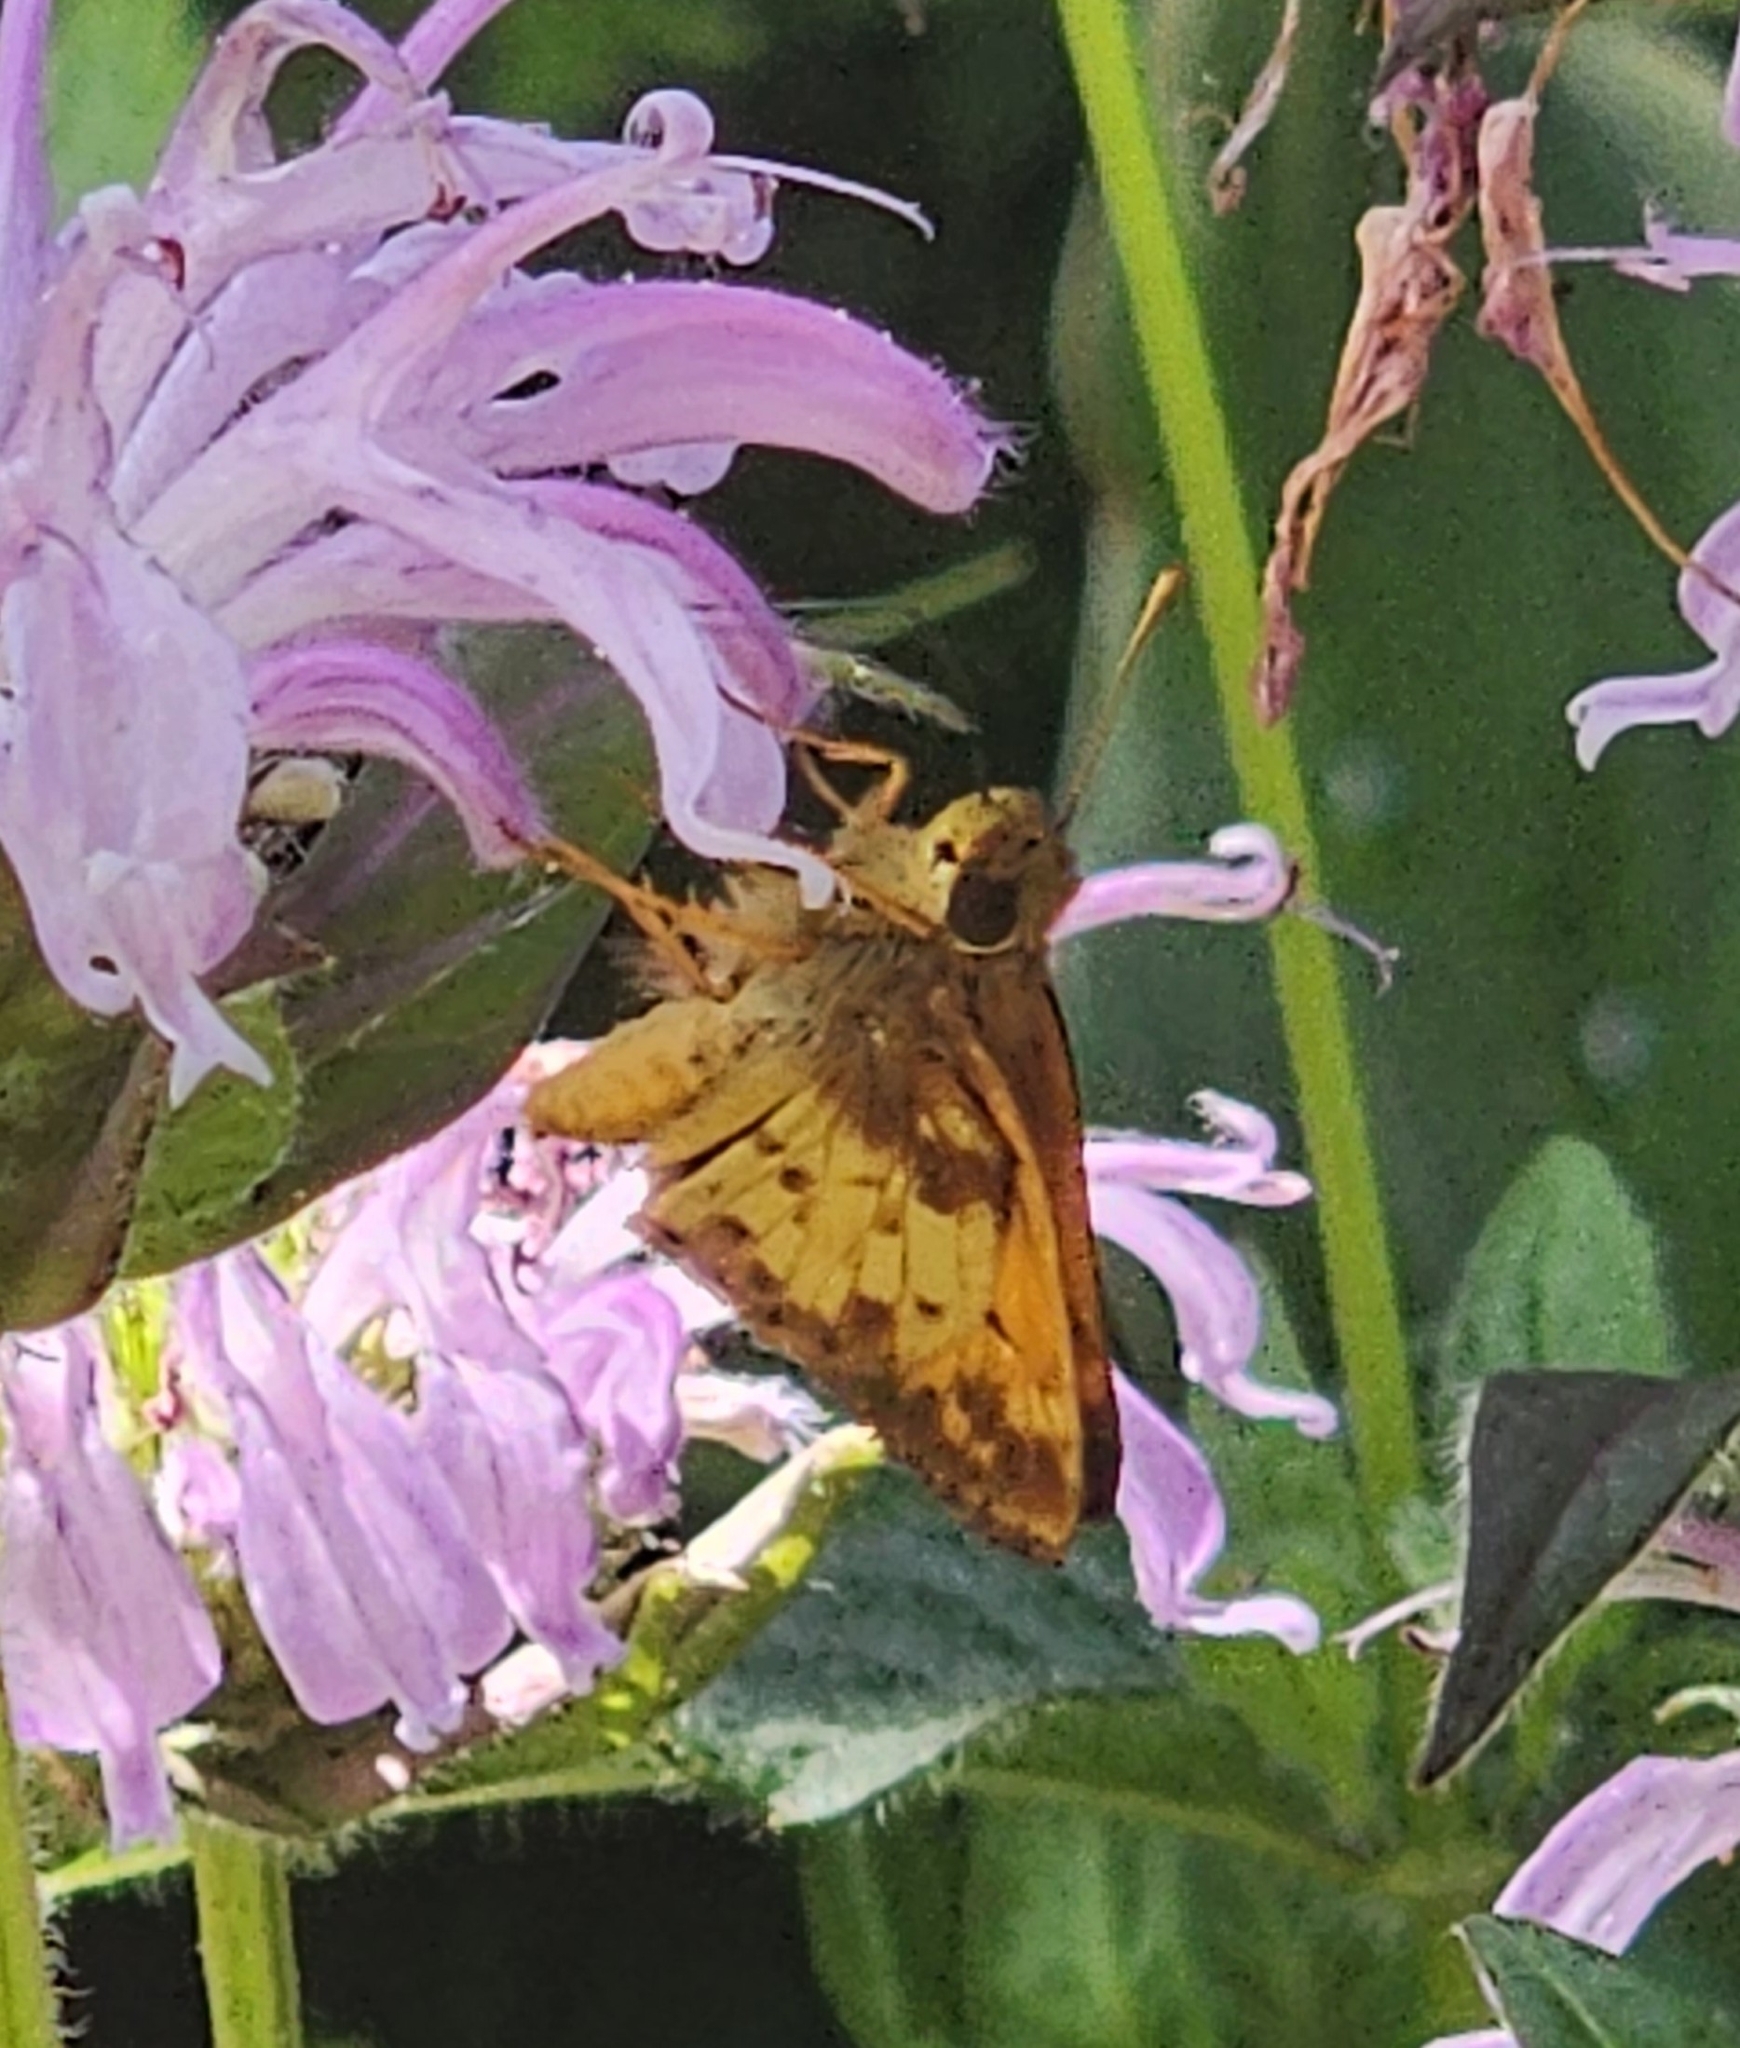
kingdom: Animalia
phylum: Arthropoda
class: Insecta
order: Lepidoptera
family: Hesperiidae
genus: Lon
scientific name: Lon zabulon
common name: Zabulon skipper
